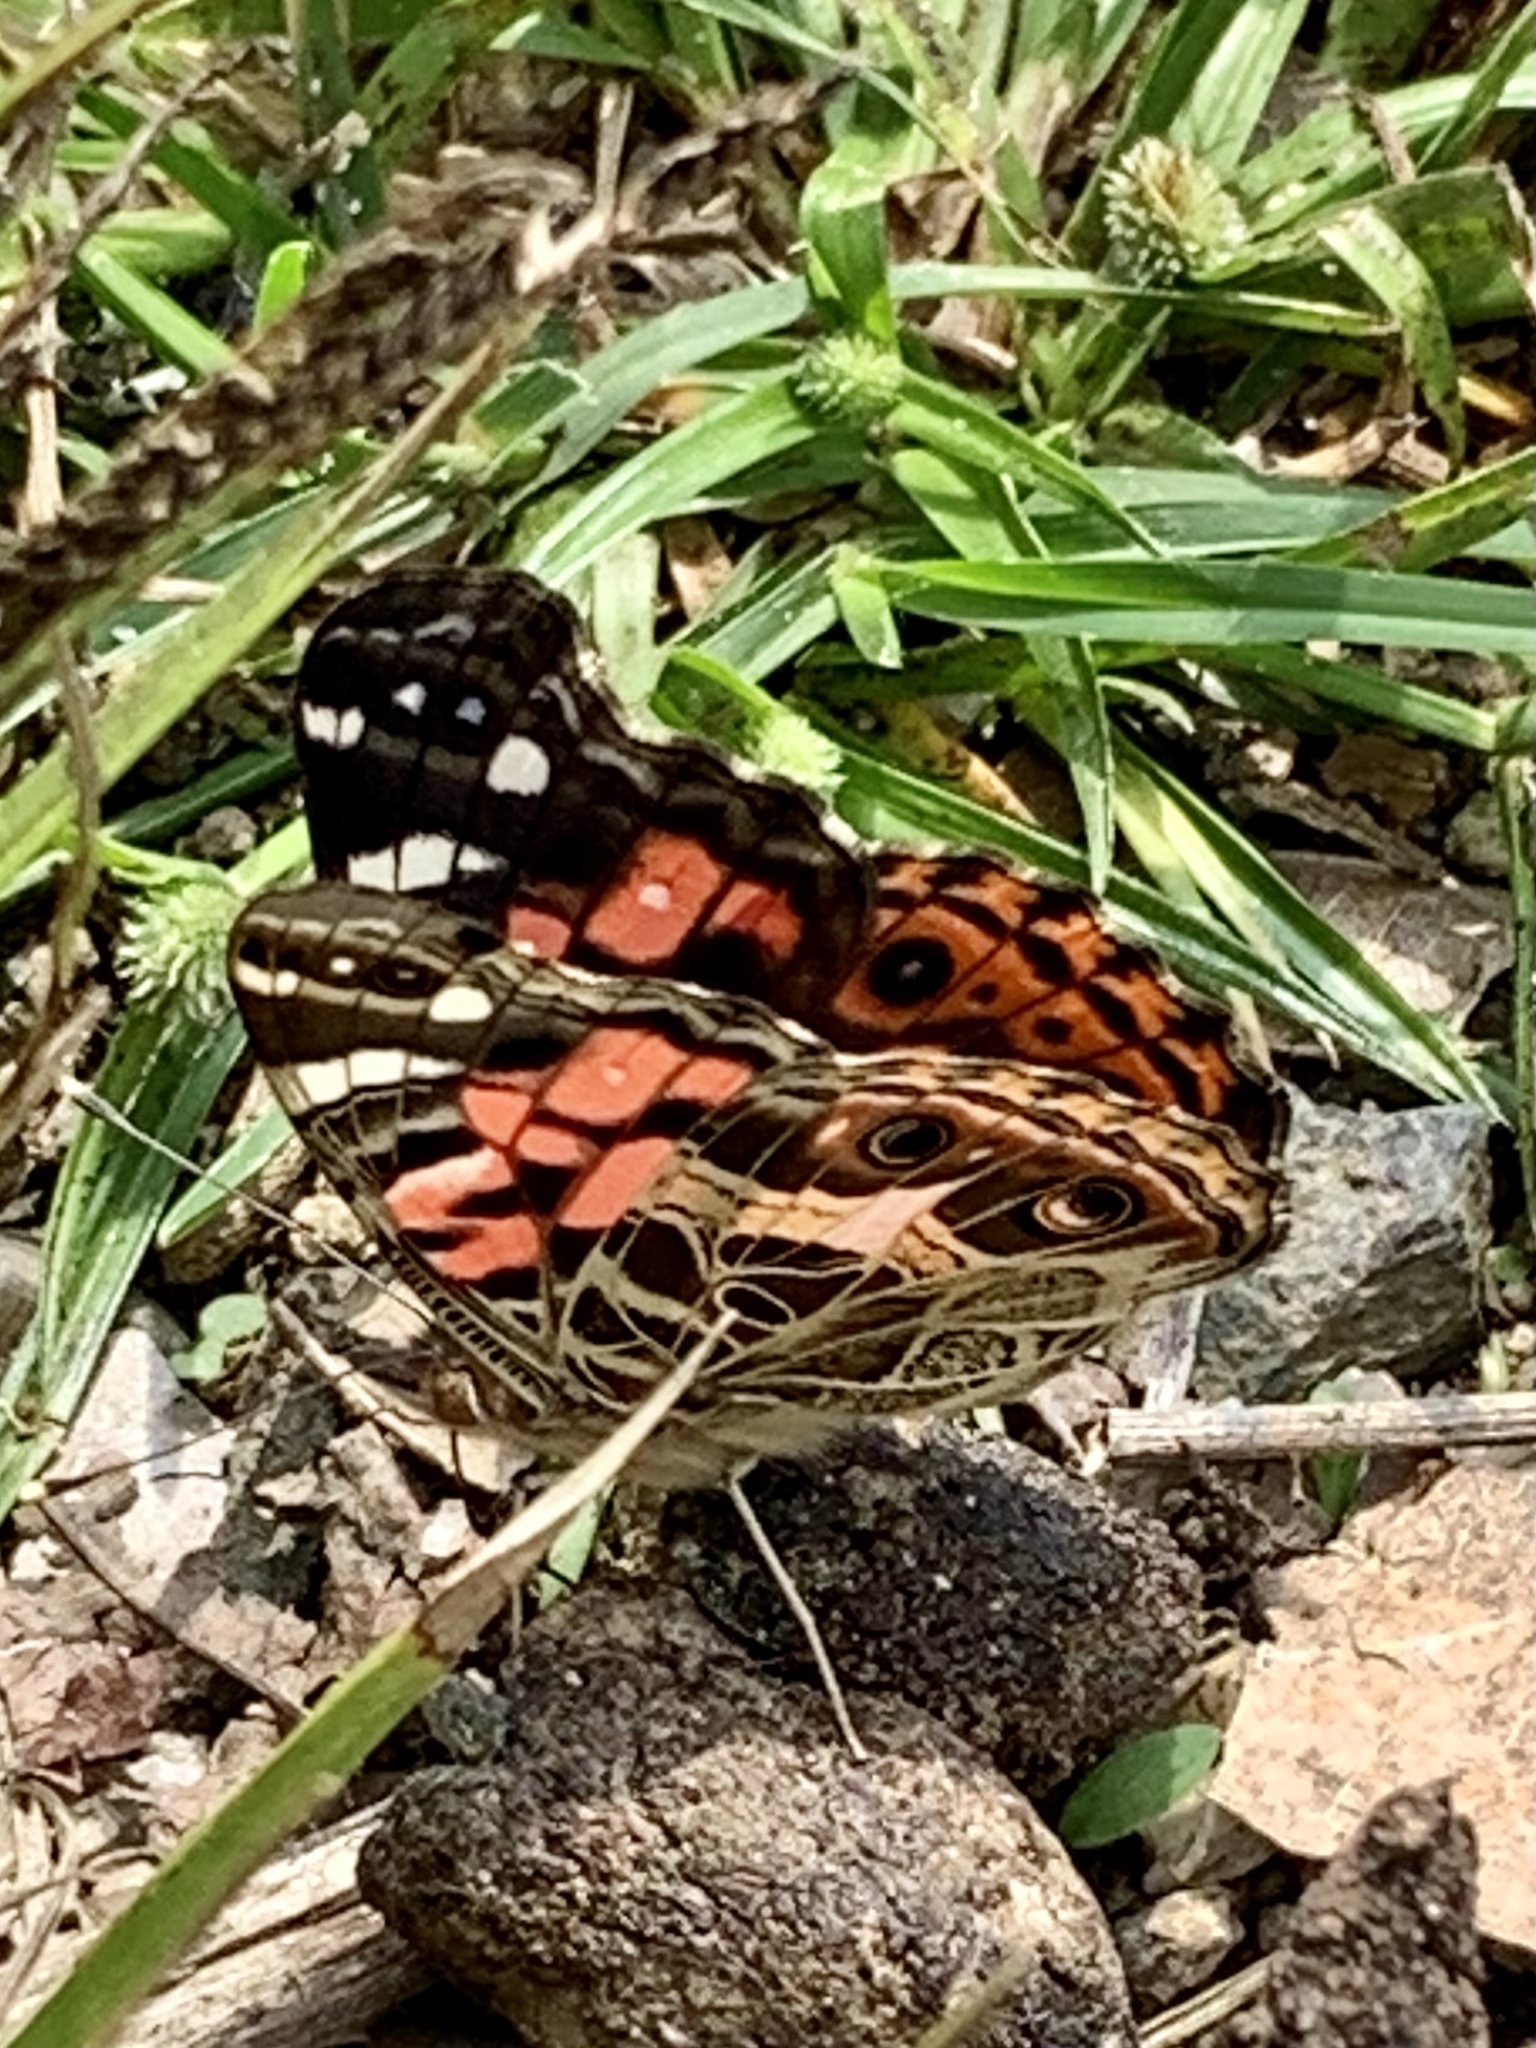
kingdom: Animalia
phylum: Arthropoda
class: Insecta
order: Lepidoptera
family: Nymphalidae
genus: Vanessa
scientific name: Vanessa braziliensis
